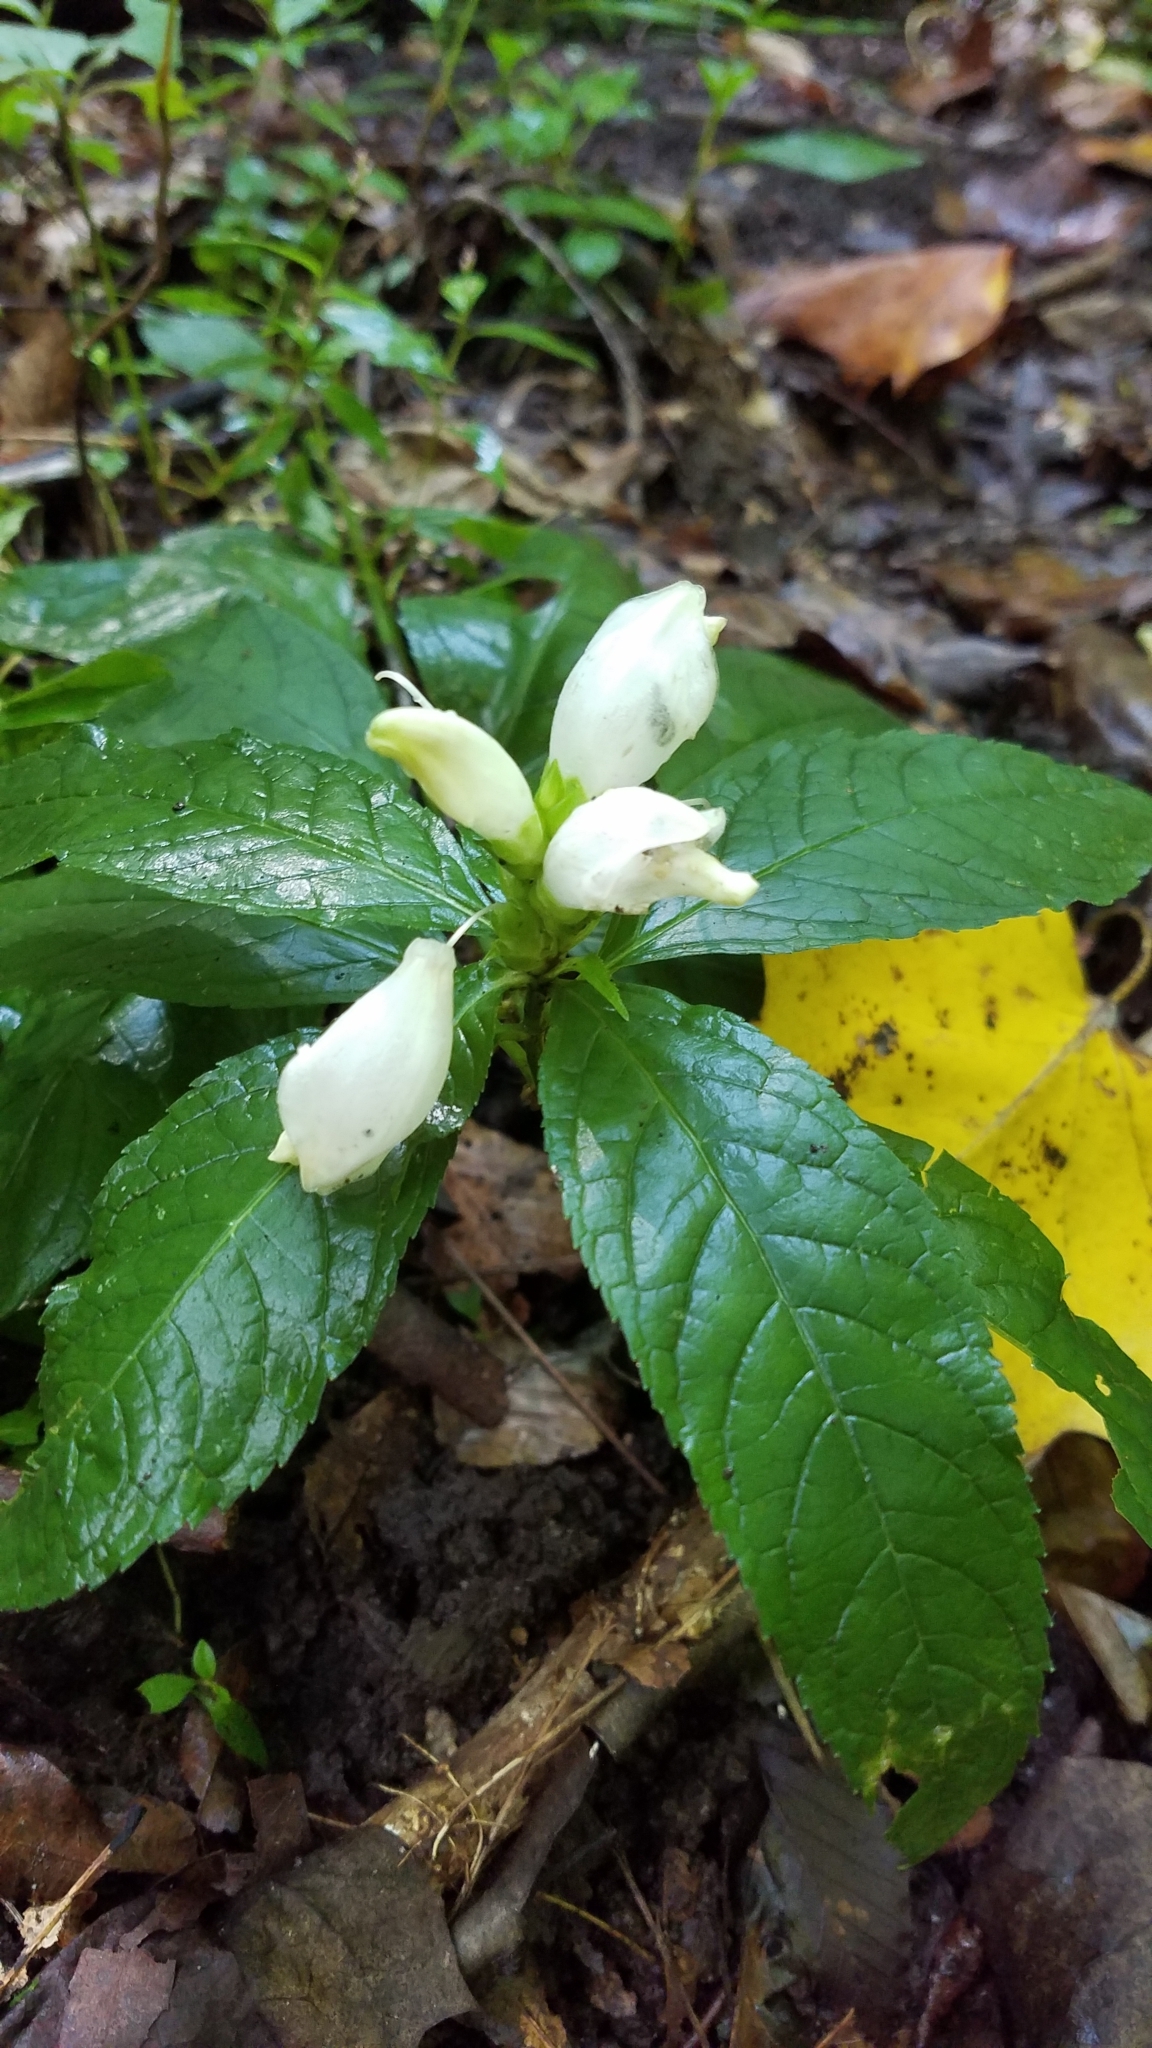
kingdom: Plantae
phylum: Tracheophyta
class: Magnoliopsida
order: Lamiales
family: Plantaginaceae
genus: Chelone
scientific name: Chelone glabra
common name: Snakehead
